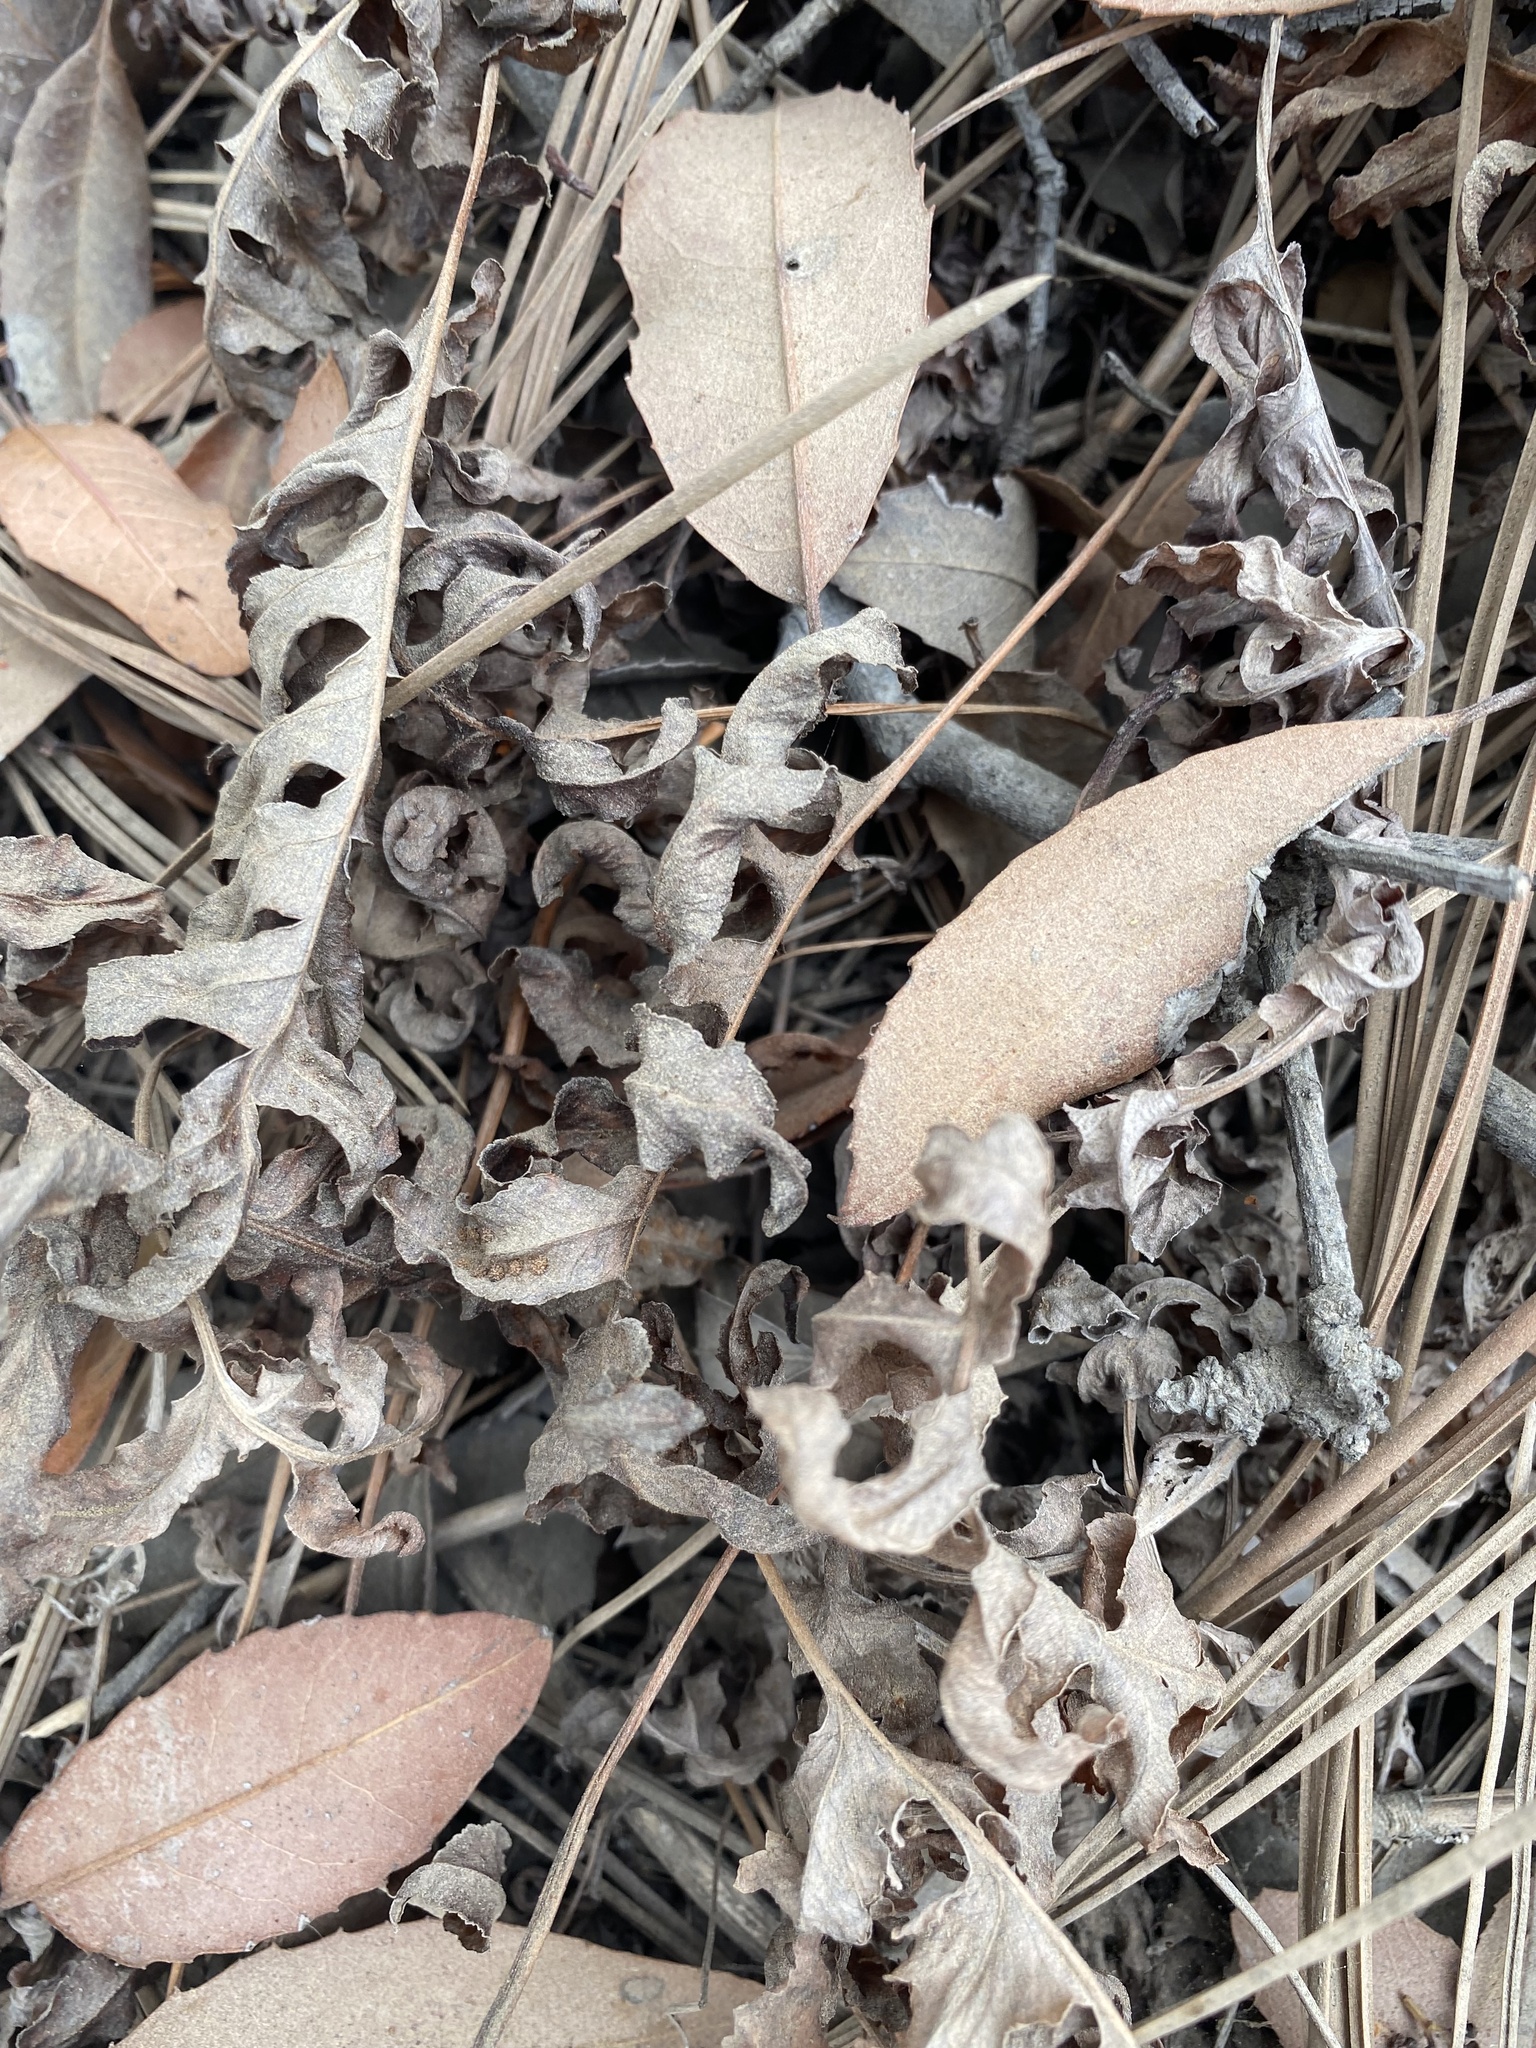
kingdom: Plantae
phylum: Tracheophyta
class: Polypodiopsida
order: Polypodiales
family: Polypodiaceae
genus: Polypodium
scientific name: Polypodium californicum
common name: California polypody
